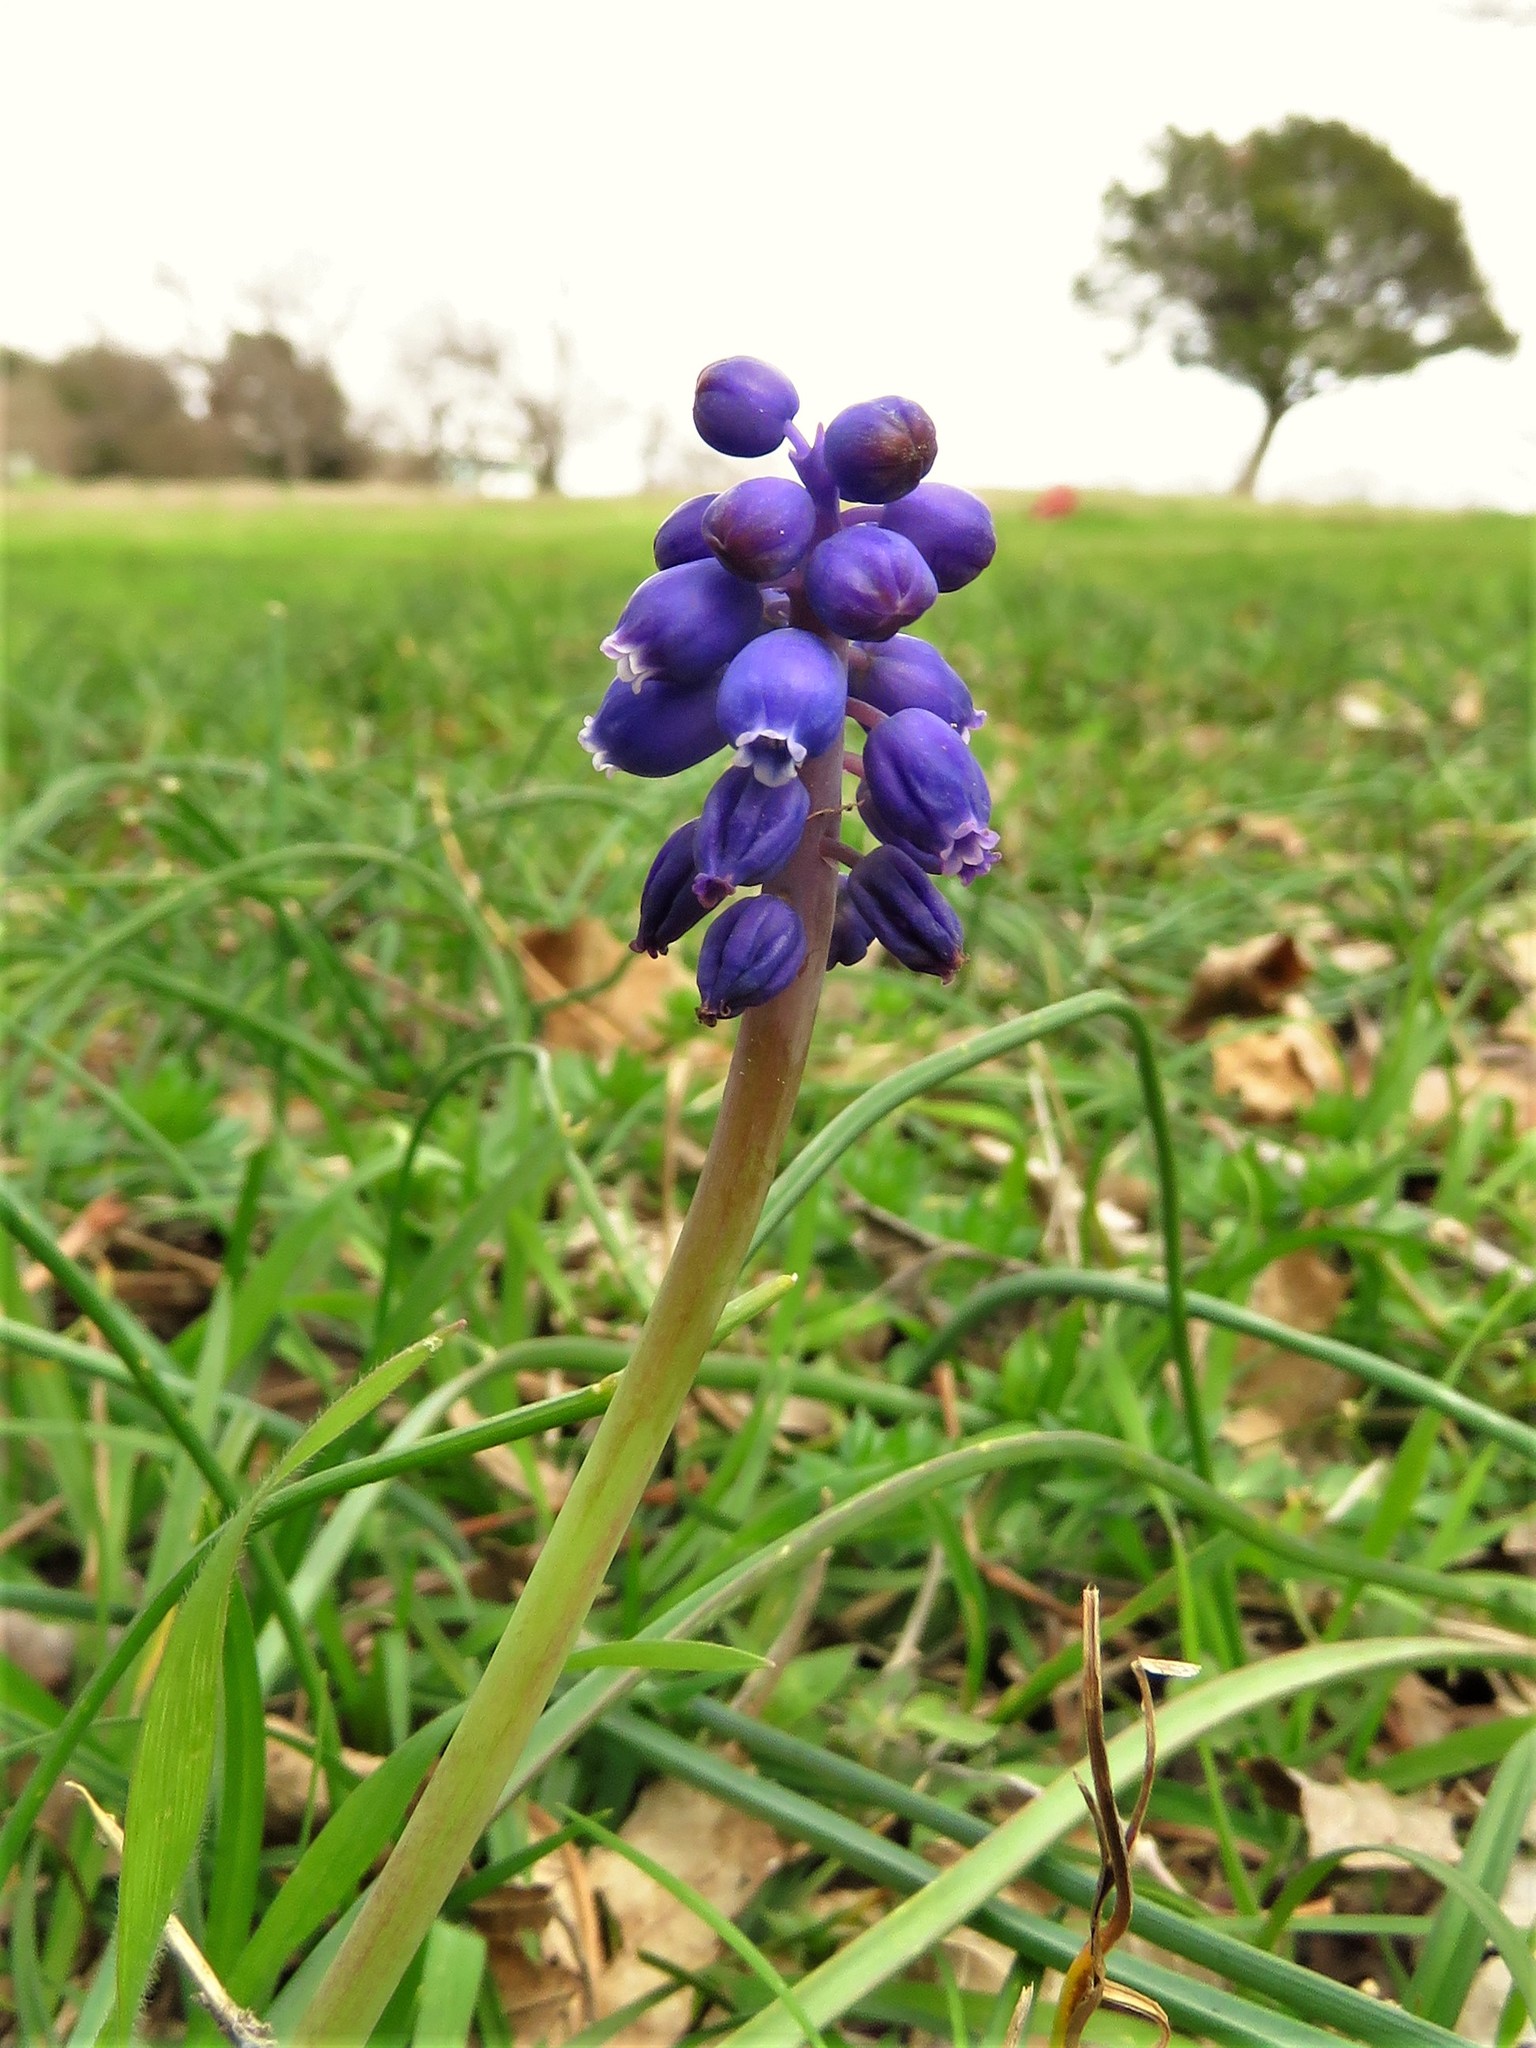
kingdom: Plantae
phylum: Tracheophyta
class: Liliopsida
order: Asparagales
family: Asparagaceae
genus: Muscari
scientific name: Muscari neglectum
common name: Grape-hyacinth
